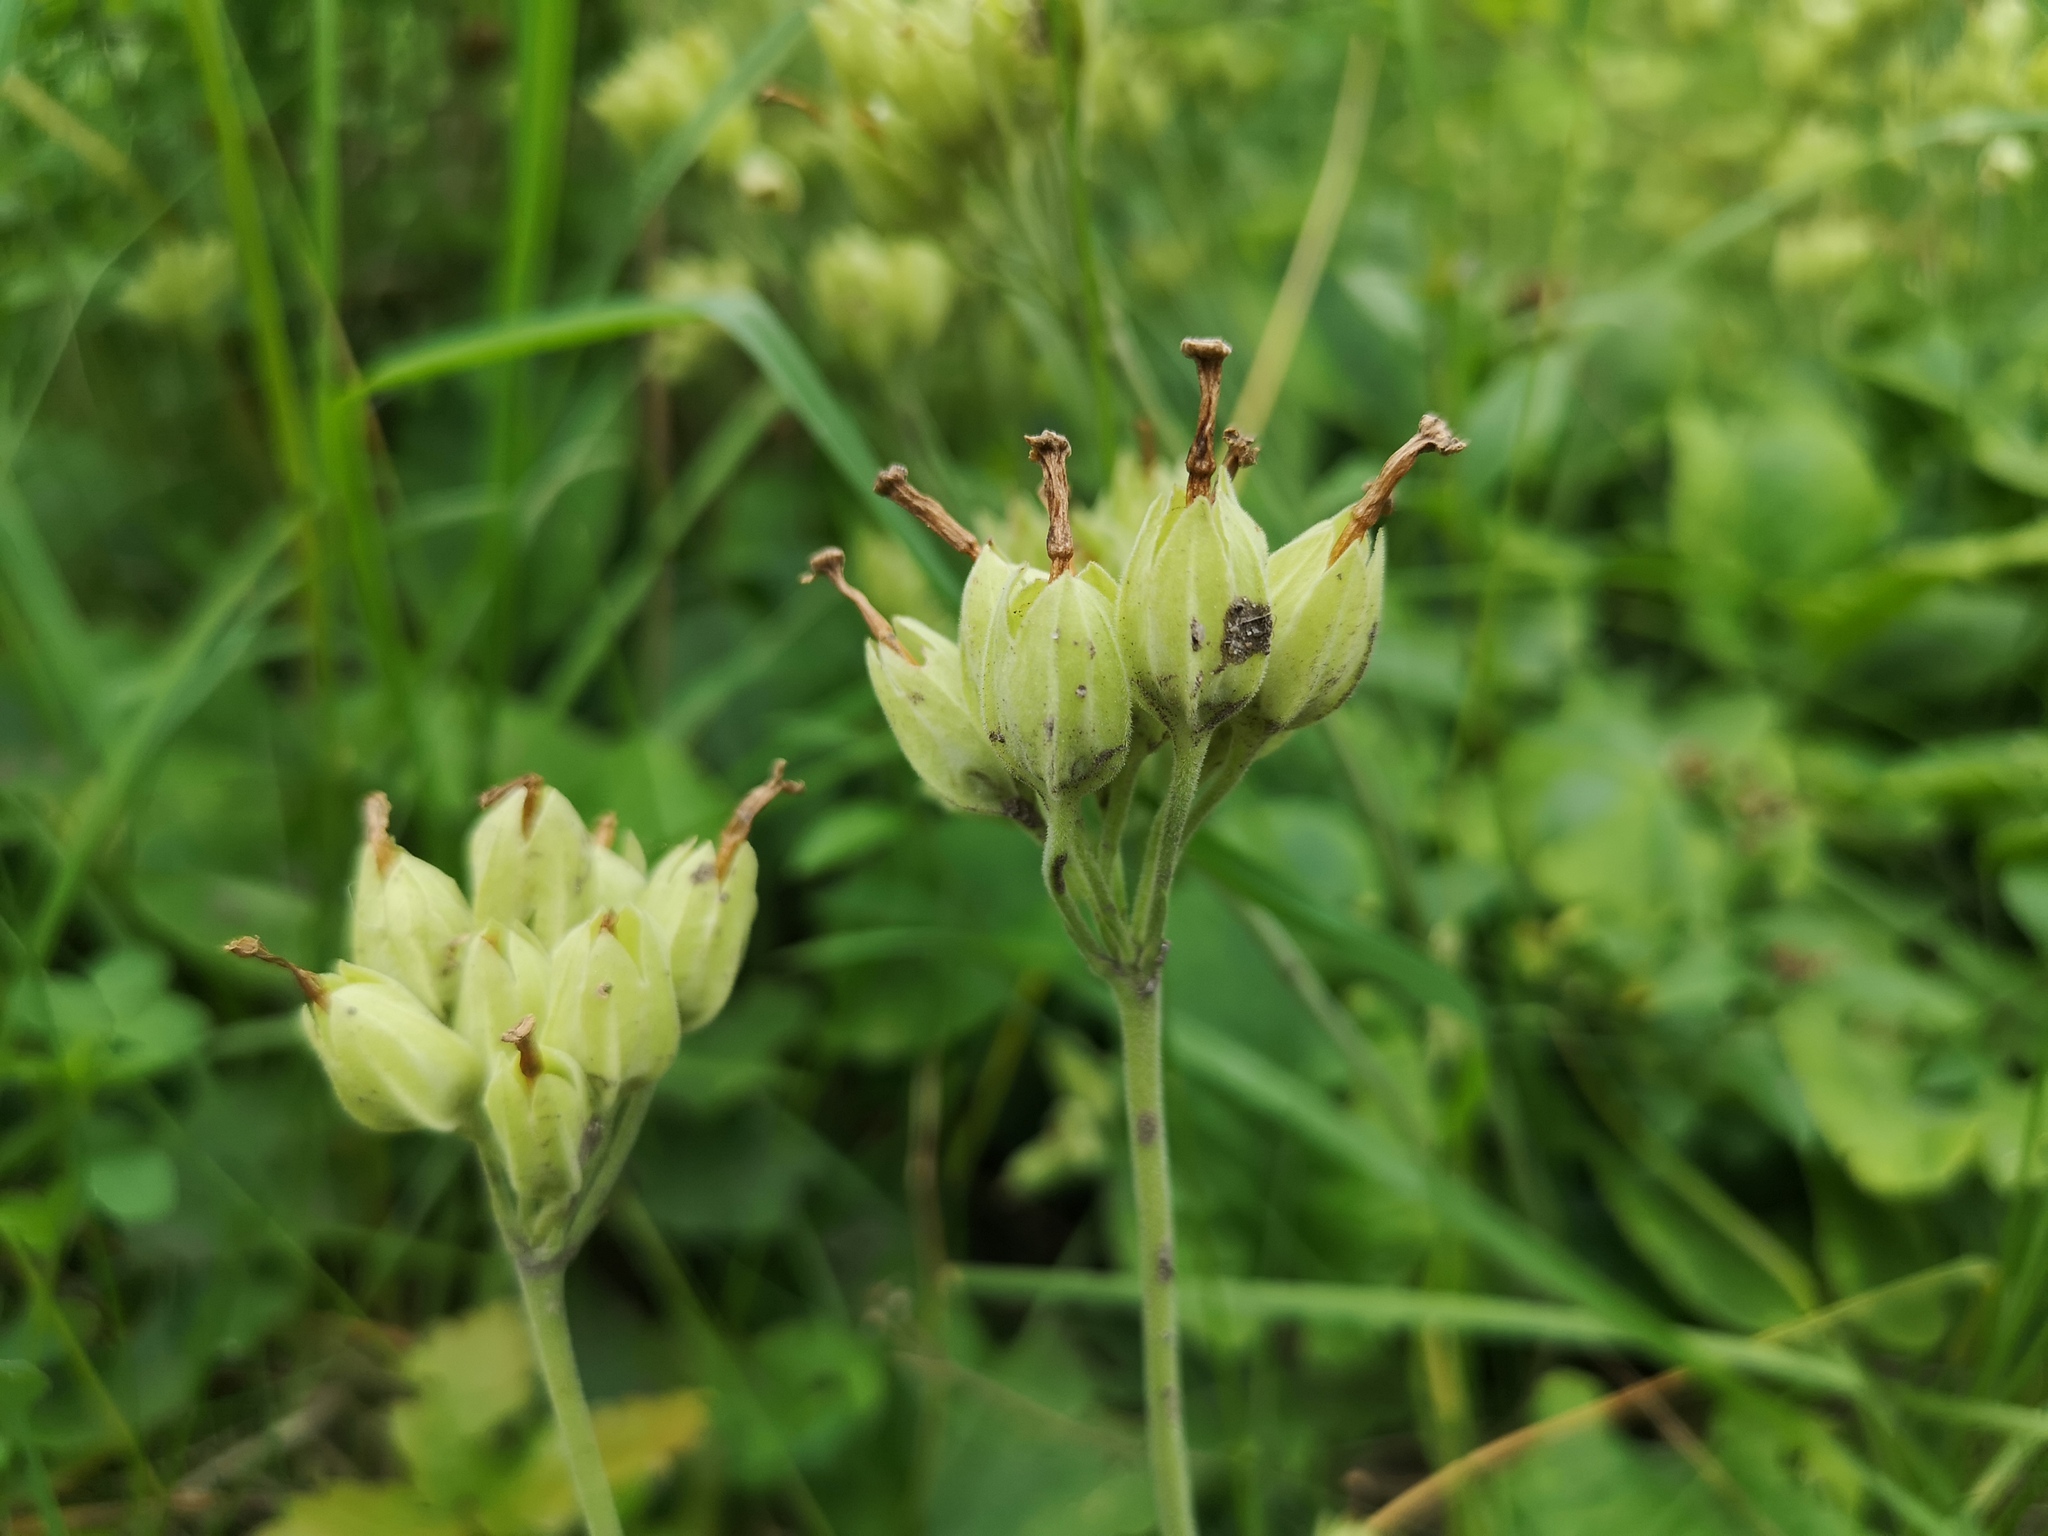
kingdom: Plantae
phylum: Tracheophyta
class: Magnoliopsida
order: Ericales
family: Primulaceae
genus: Primula
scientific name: Primula veris
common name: Cowslip
